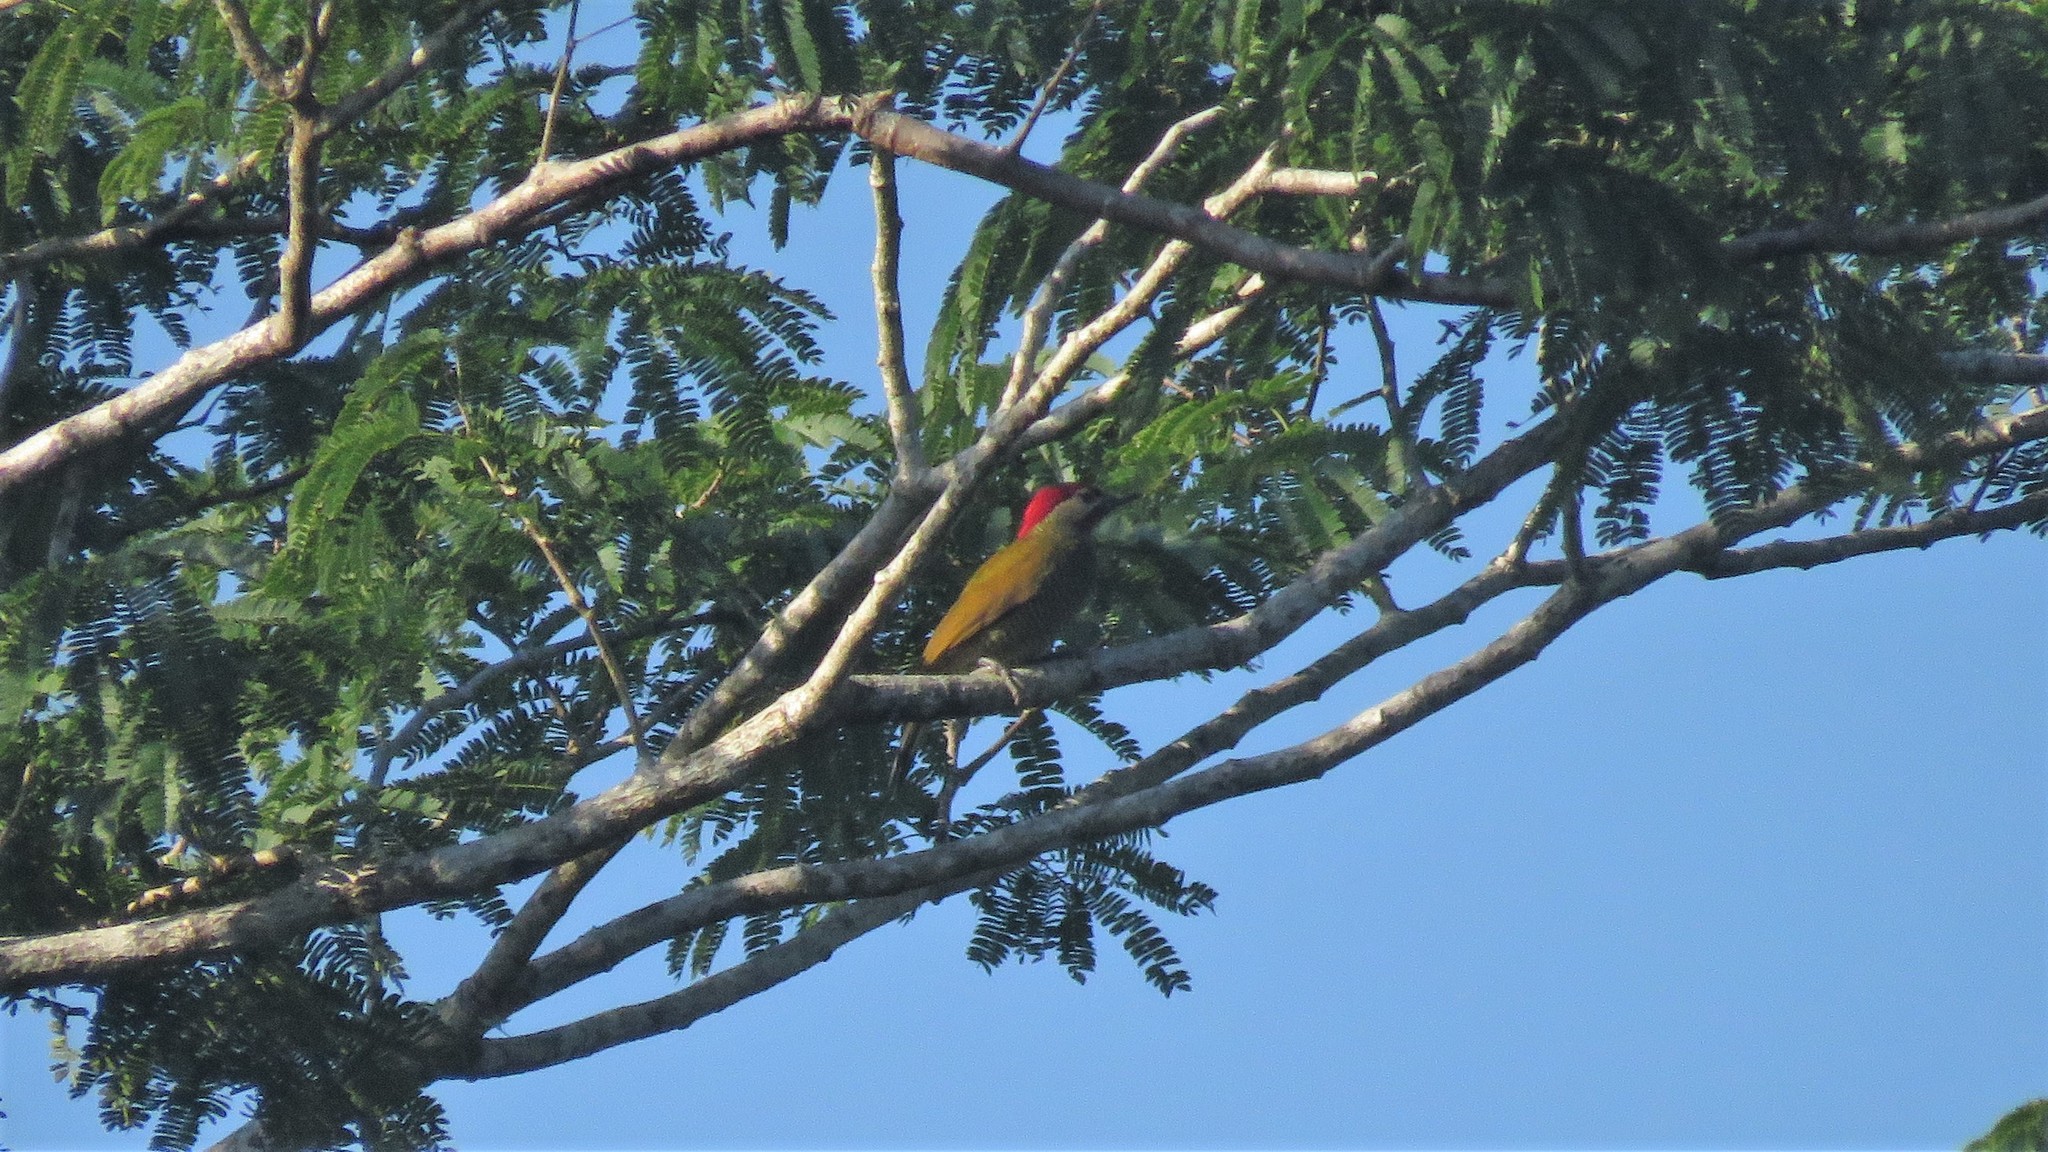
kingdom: Animalia
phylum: Chordata
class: Aves
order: Piciformes
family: Picidae
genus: Colaptes
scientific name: Colaptes rubiginosus
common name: Golden-olive woodpecker
